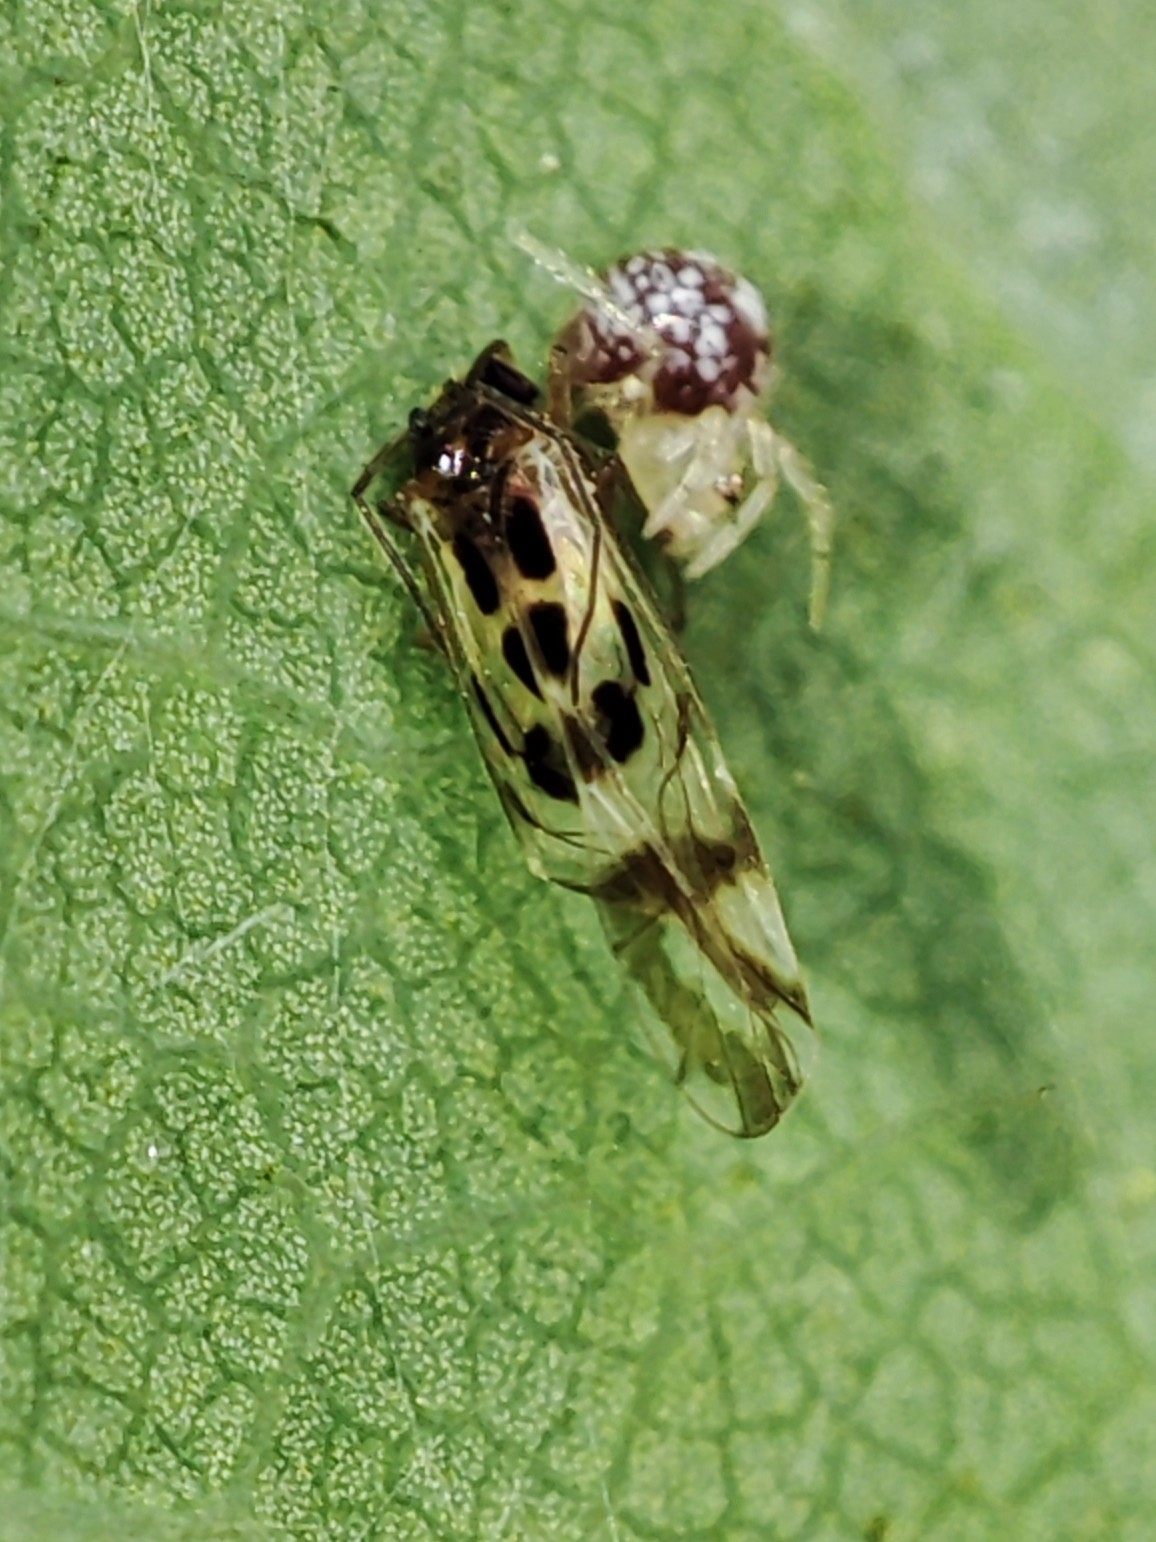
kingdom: Animalia
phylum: Arthropoda
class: Insecta
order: Psocodea
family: Stenopsocidae
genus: Graphopsocus
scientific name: Graphopsocus cruciatus
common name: Lizard bark louse
